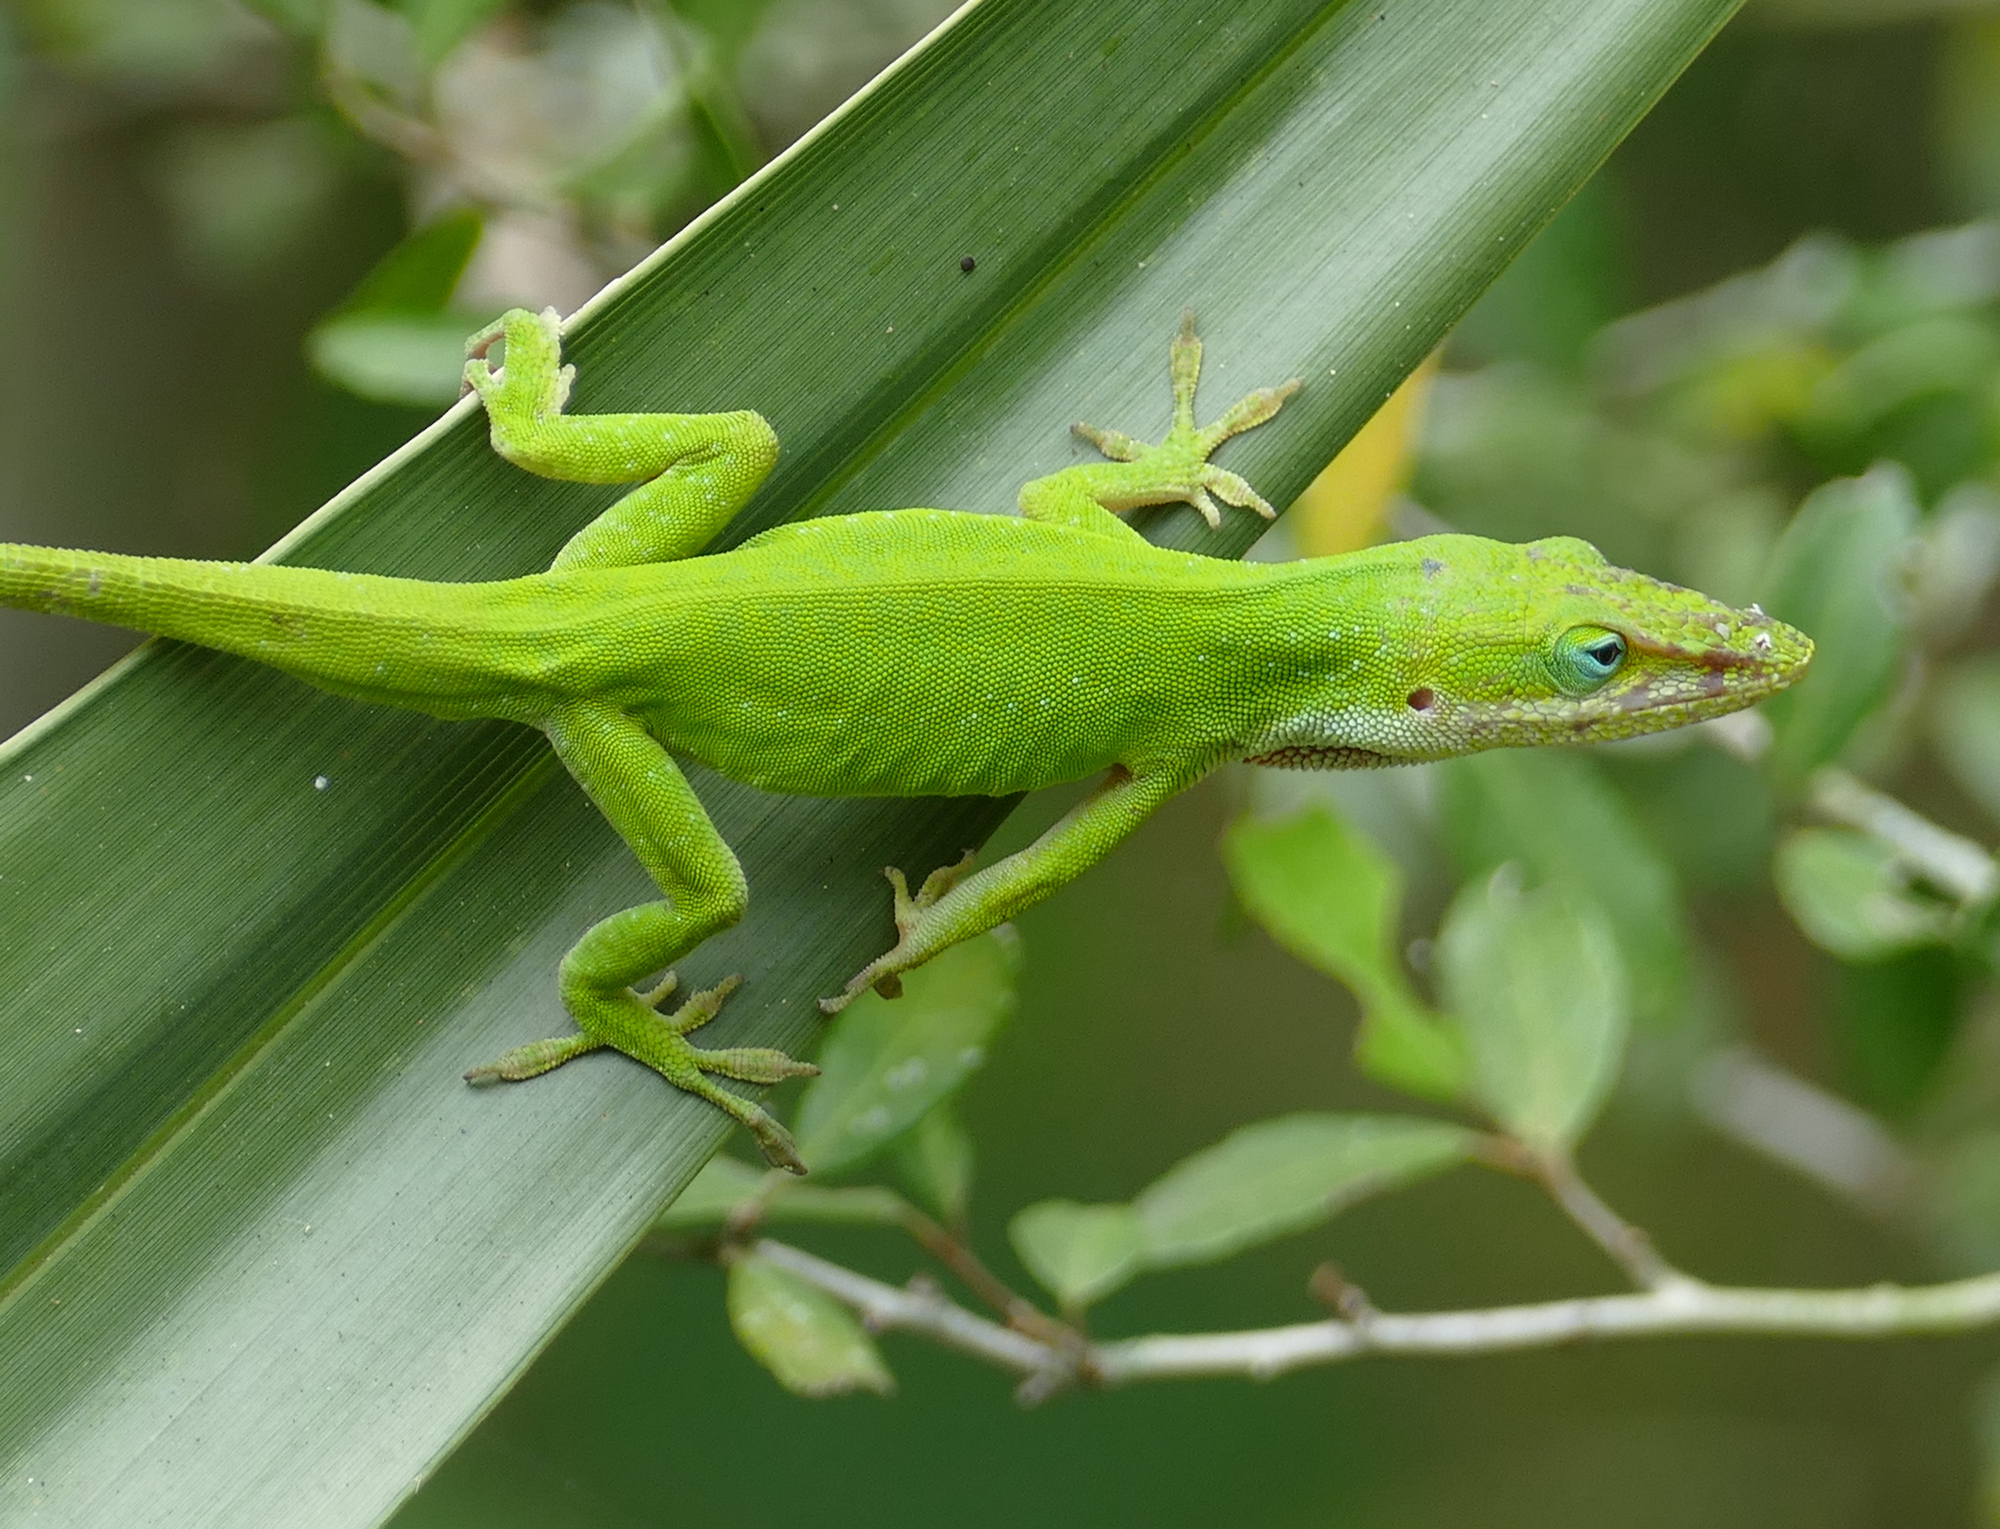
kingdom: Animalia
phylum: Chordata
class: Squamata
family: Dactyloidae
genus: Anolis
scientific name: Anolis carolinensis
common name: Green anole
